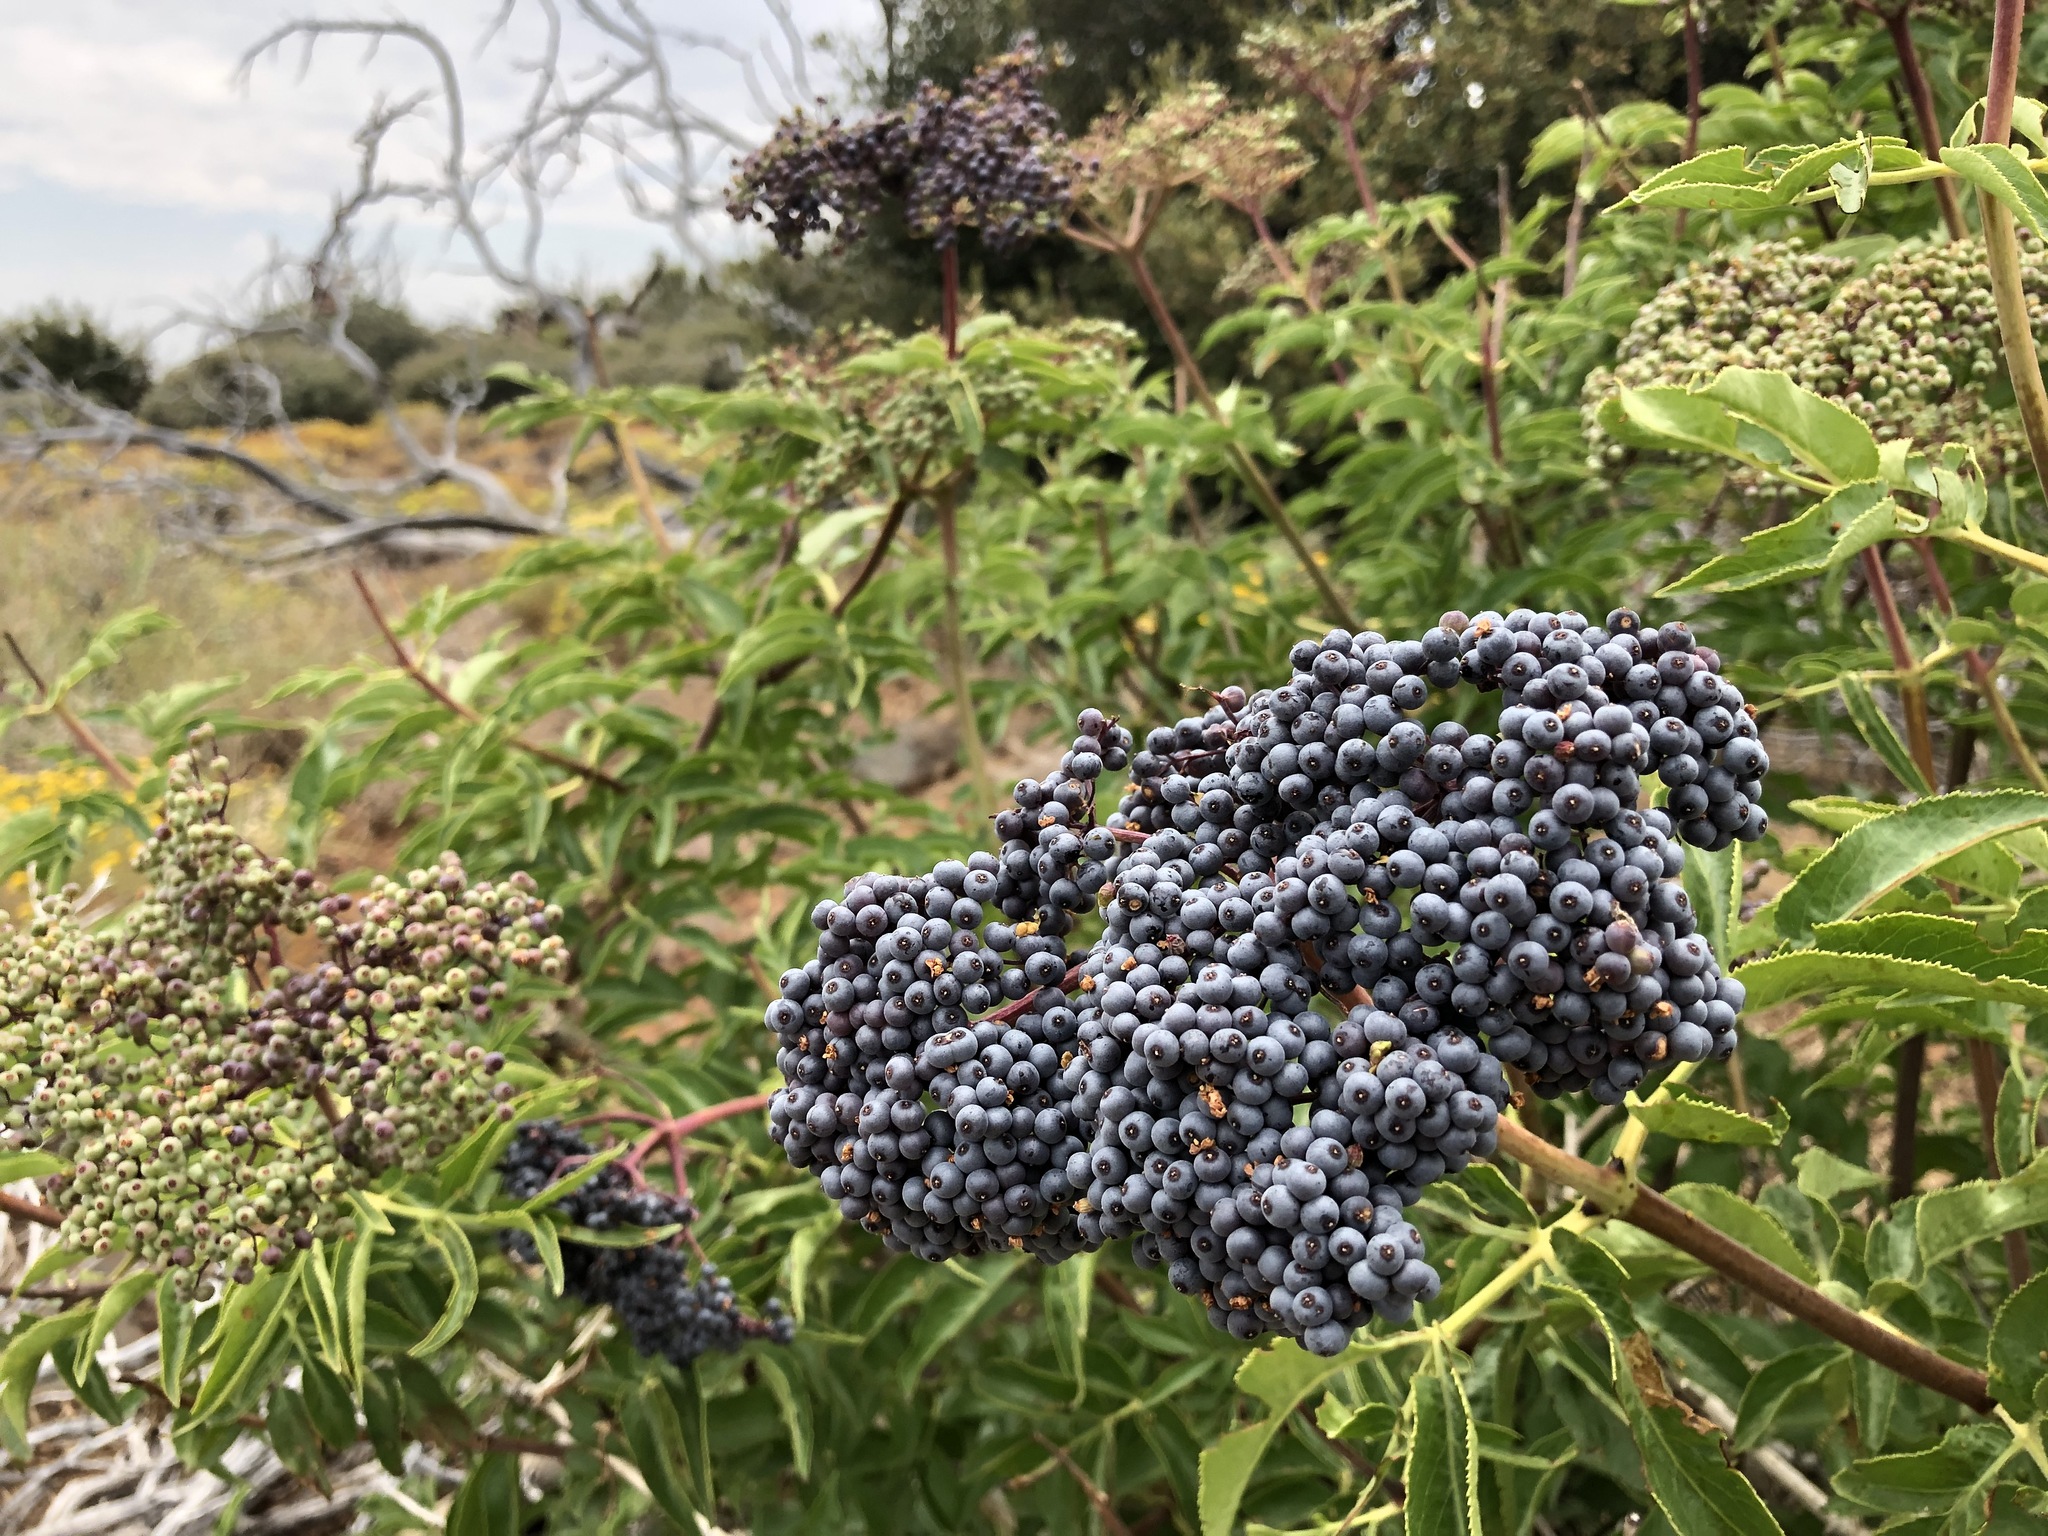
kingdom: Plantae
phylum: Tracheophyta
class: Magnoliopsida
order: Dipsacales
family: Viburnaceae
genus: Sambucus
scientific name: Sambucus cerulea
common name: Blue elder
